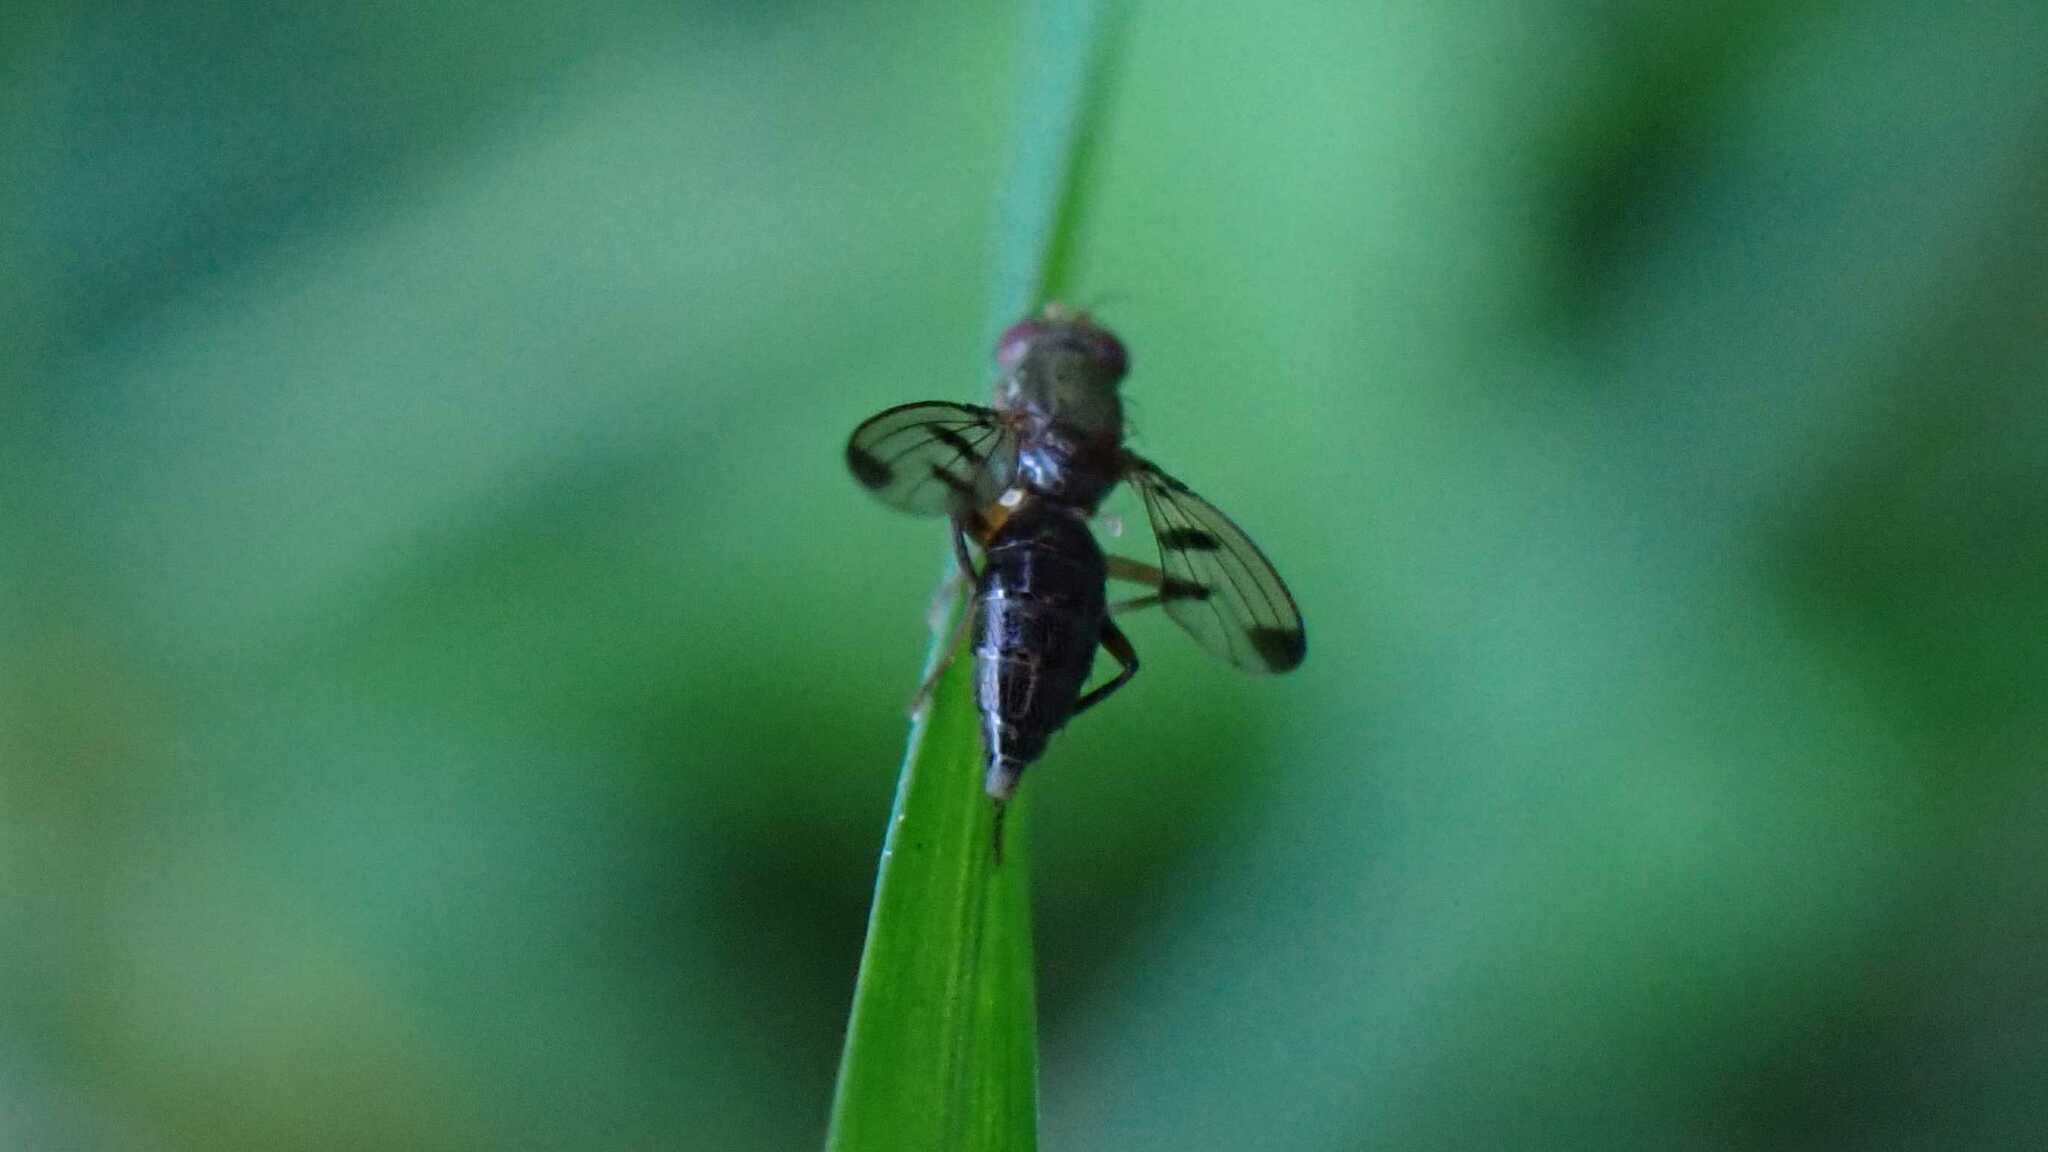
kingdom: Animalia
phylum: Arthropoda
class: Insecta
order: Diptera
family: Opomyzidae
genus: Geomyza
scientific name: Geomyza tripunctata
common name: Cereal fly
